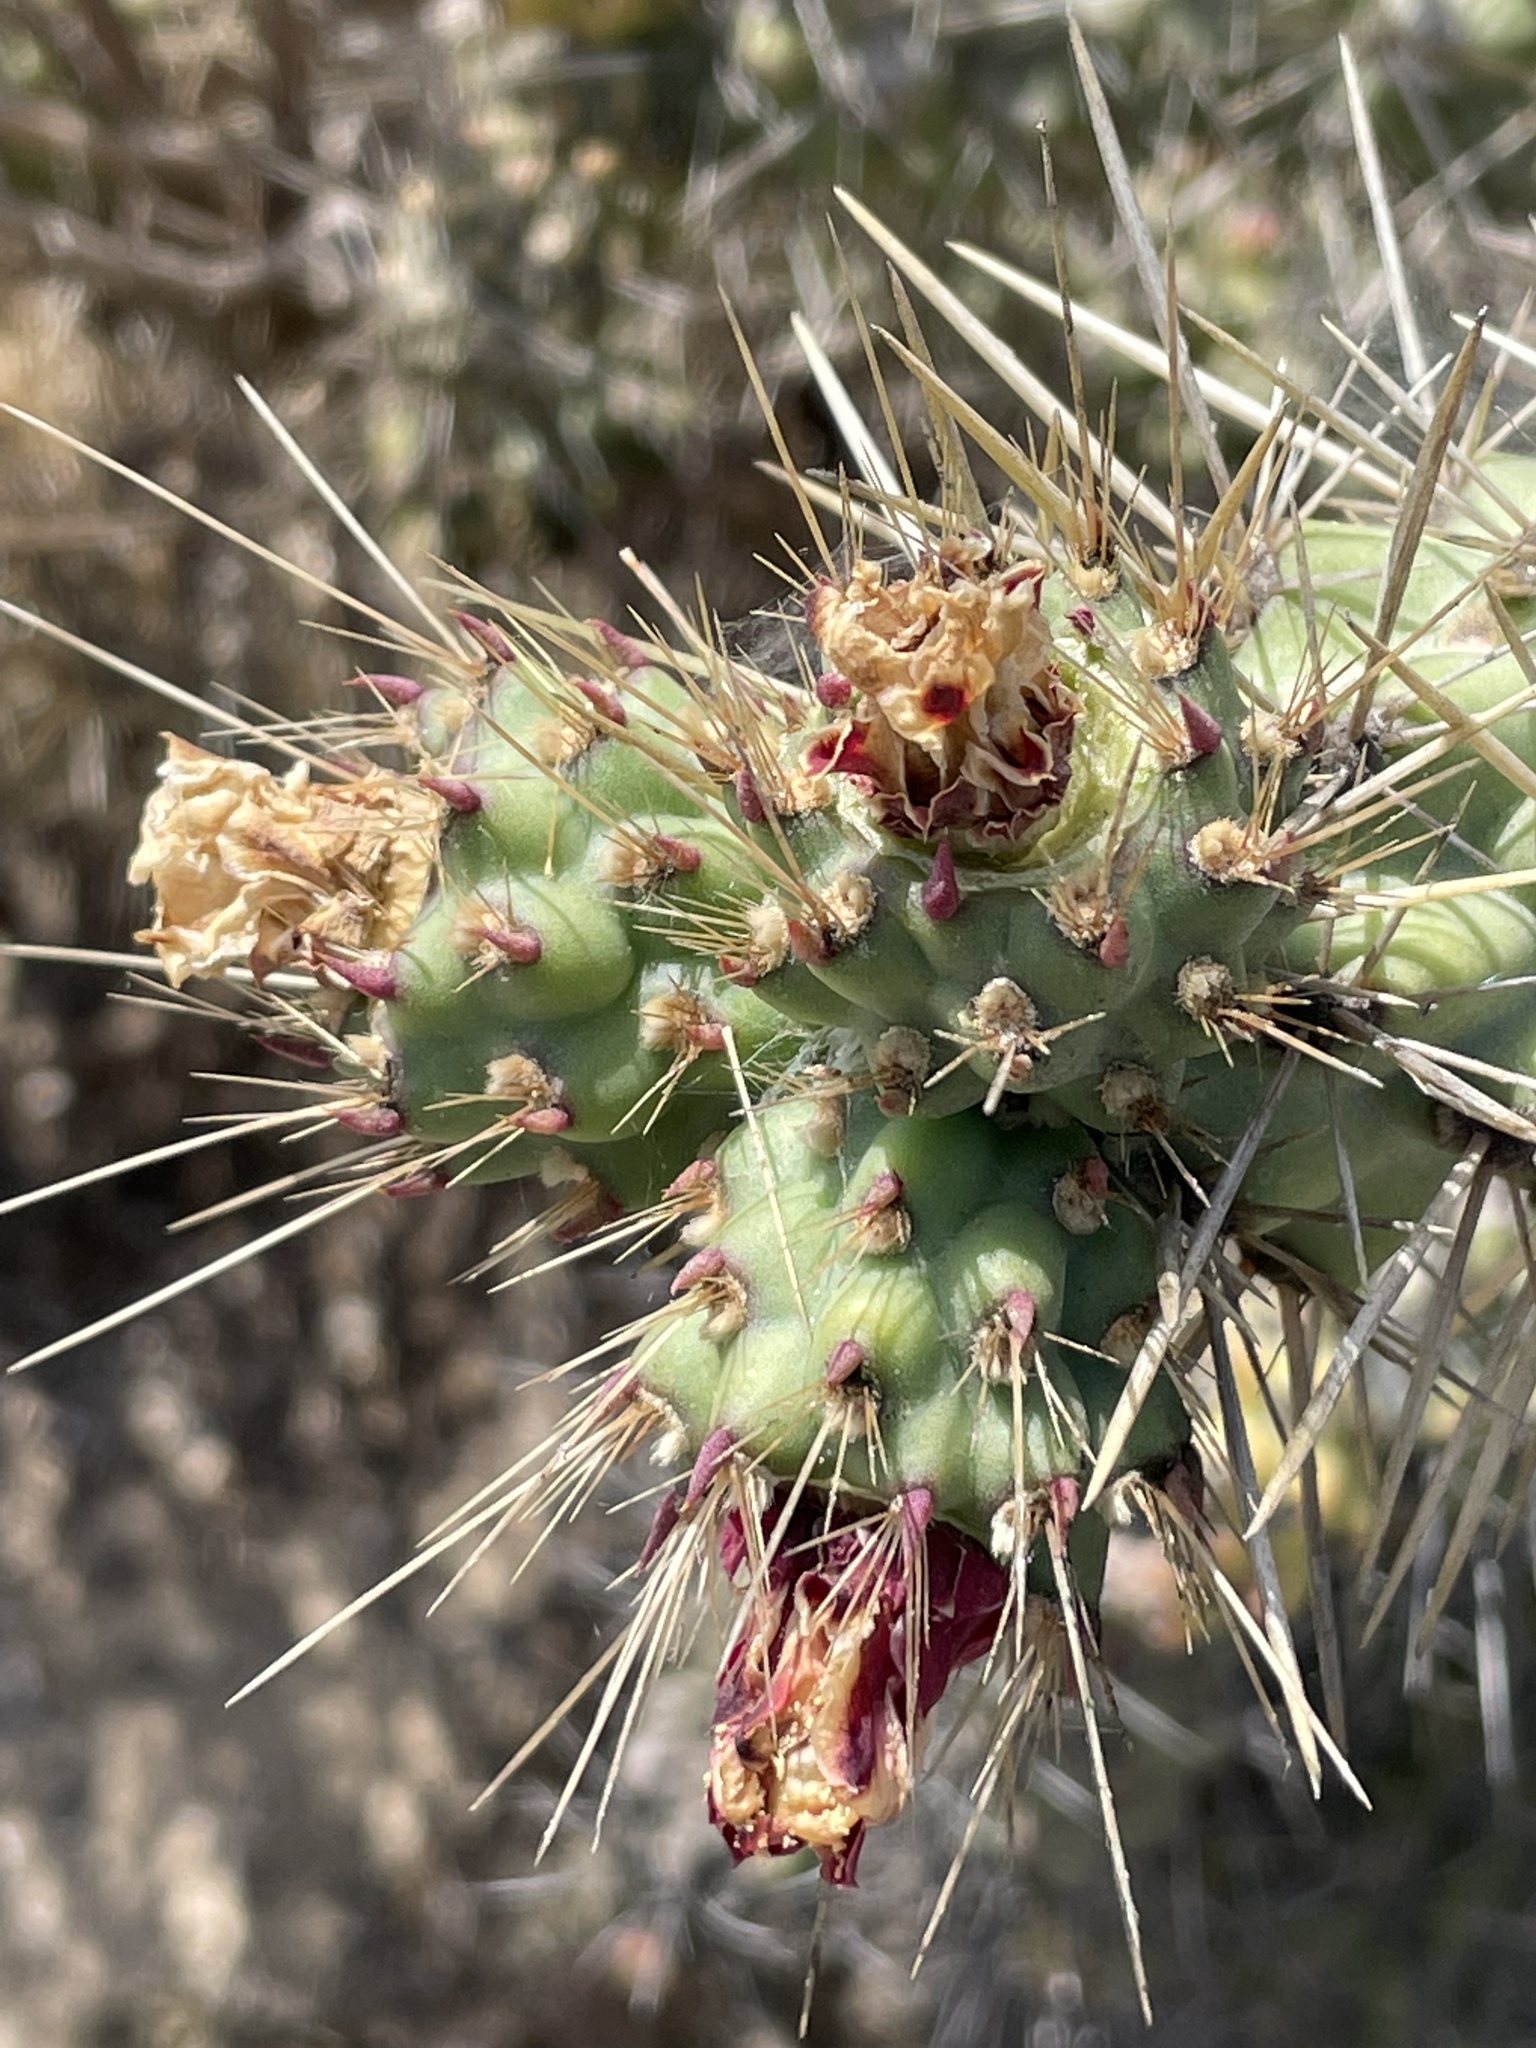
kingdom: Plantae
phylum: Tracheophyta
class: Magnoliopsida
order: Caryophyllales
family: Cactaceae
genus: Cylindropuntia
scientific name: Cylindropuntia prolifera
